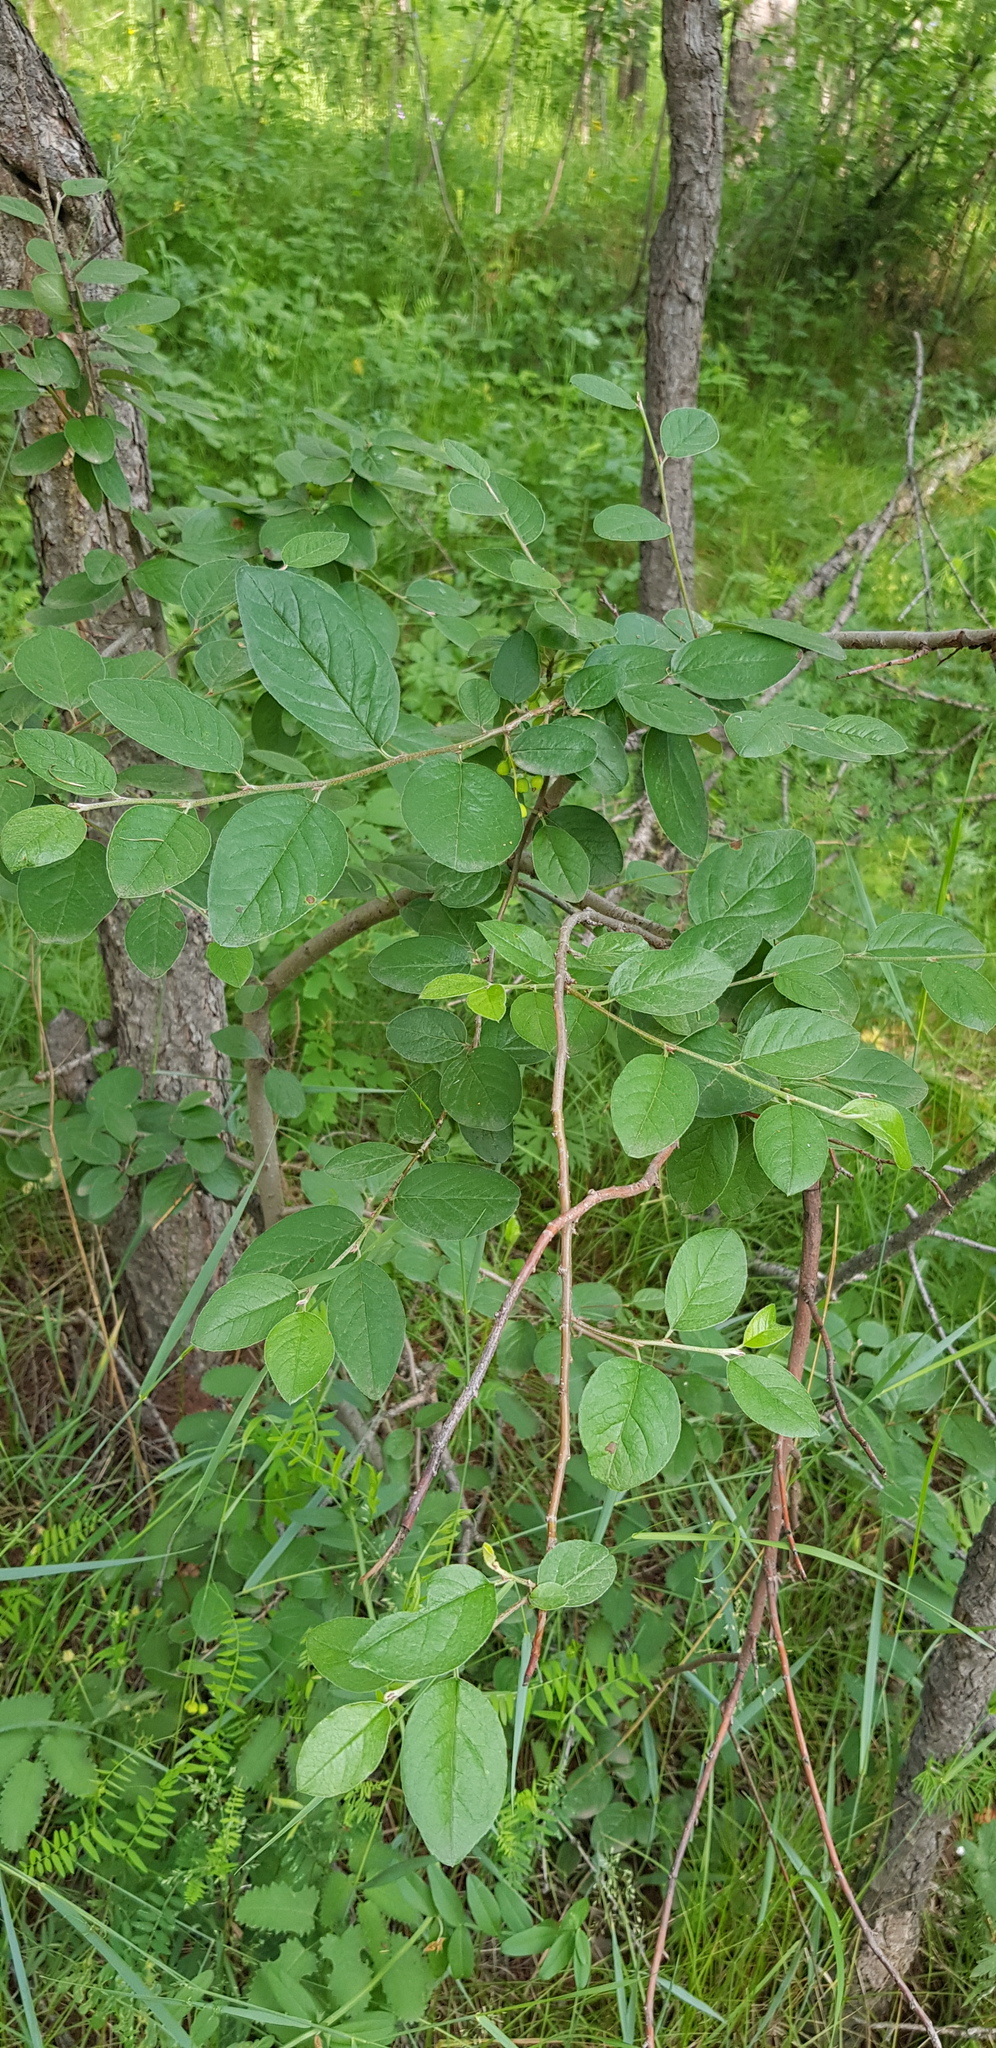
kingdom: Plantae
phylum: Tracheophyta
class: Magnoliopsida
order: Rosales
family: Rosaceae
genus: Cotoneaster
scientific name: Cotoneaster melanocarpus
